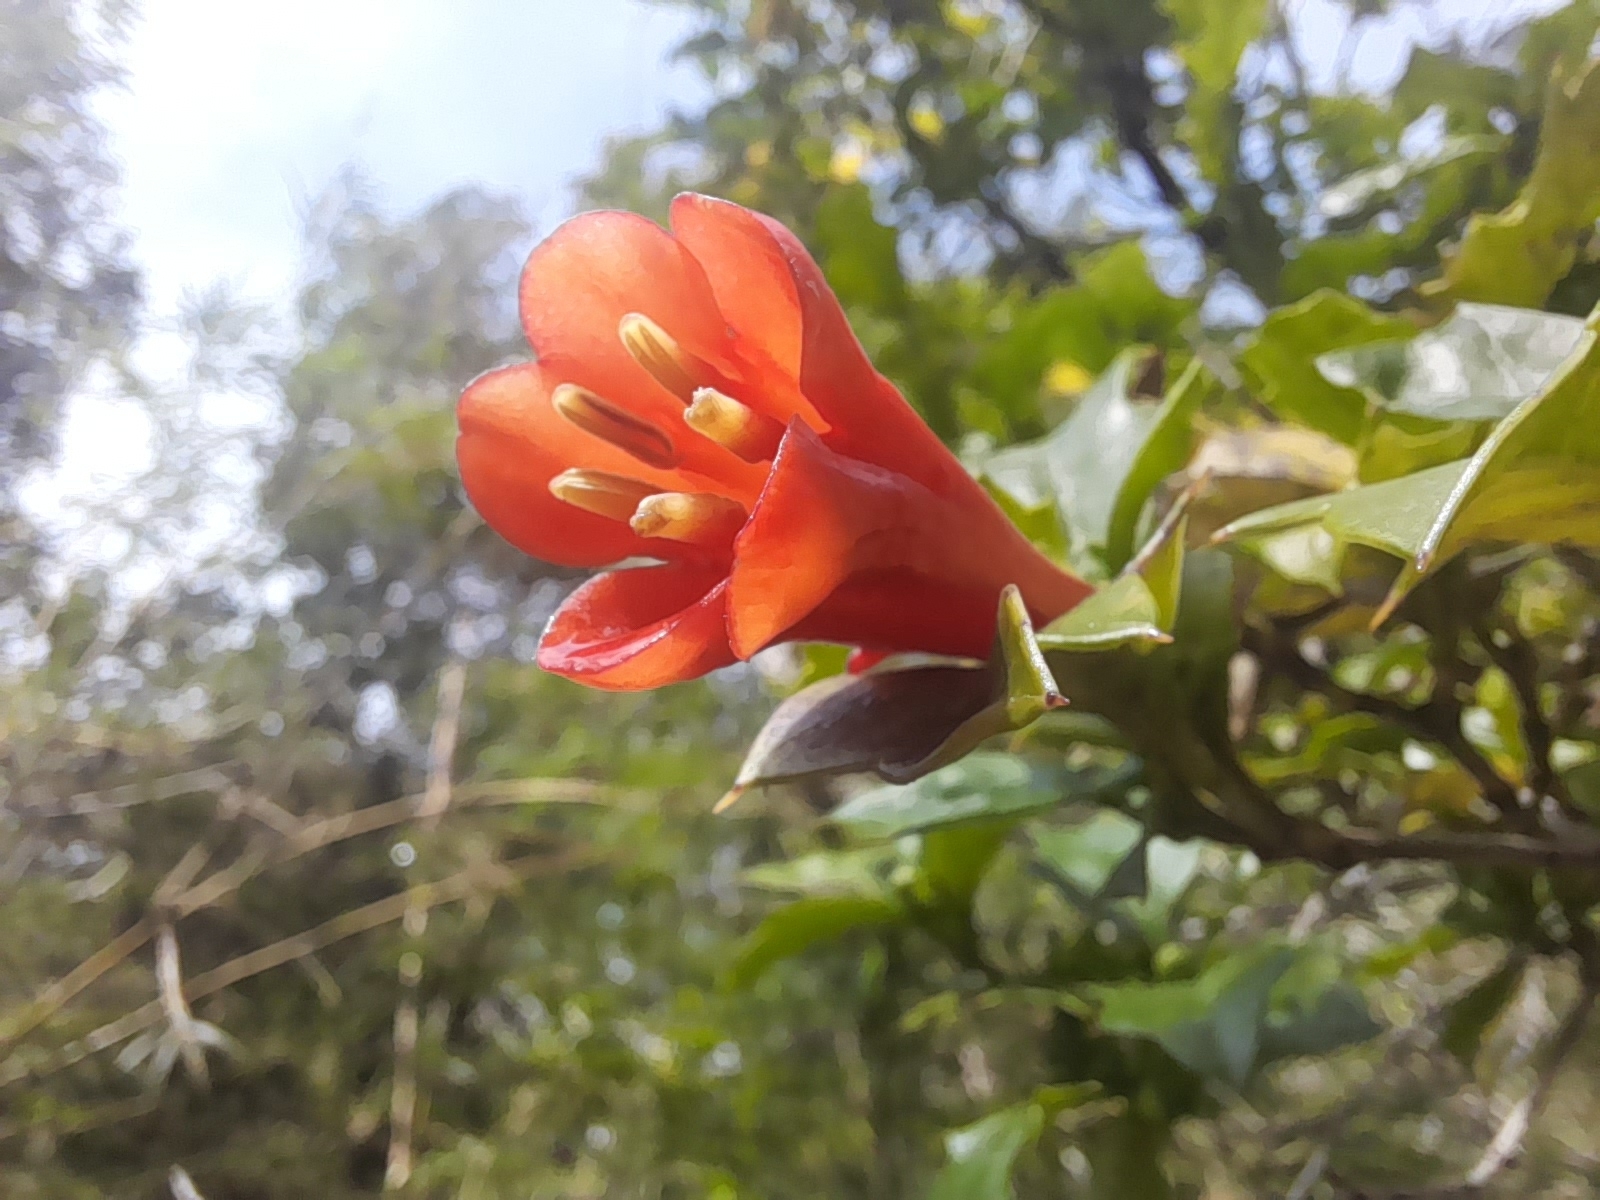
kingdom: Plantae
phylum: Tracheophyta
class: Magnoliopsida
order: Bruniales
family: Columelliaceae
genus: Desfontainia
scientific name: Desfontainia fulgens
